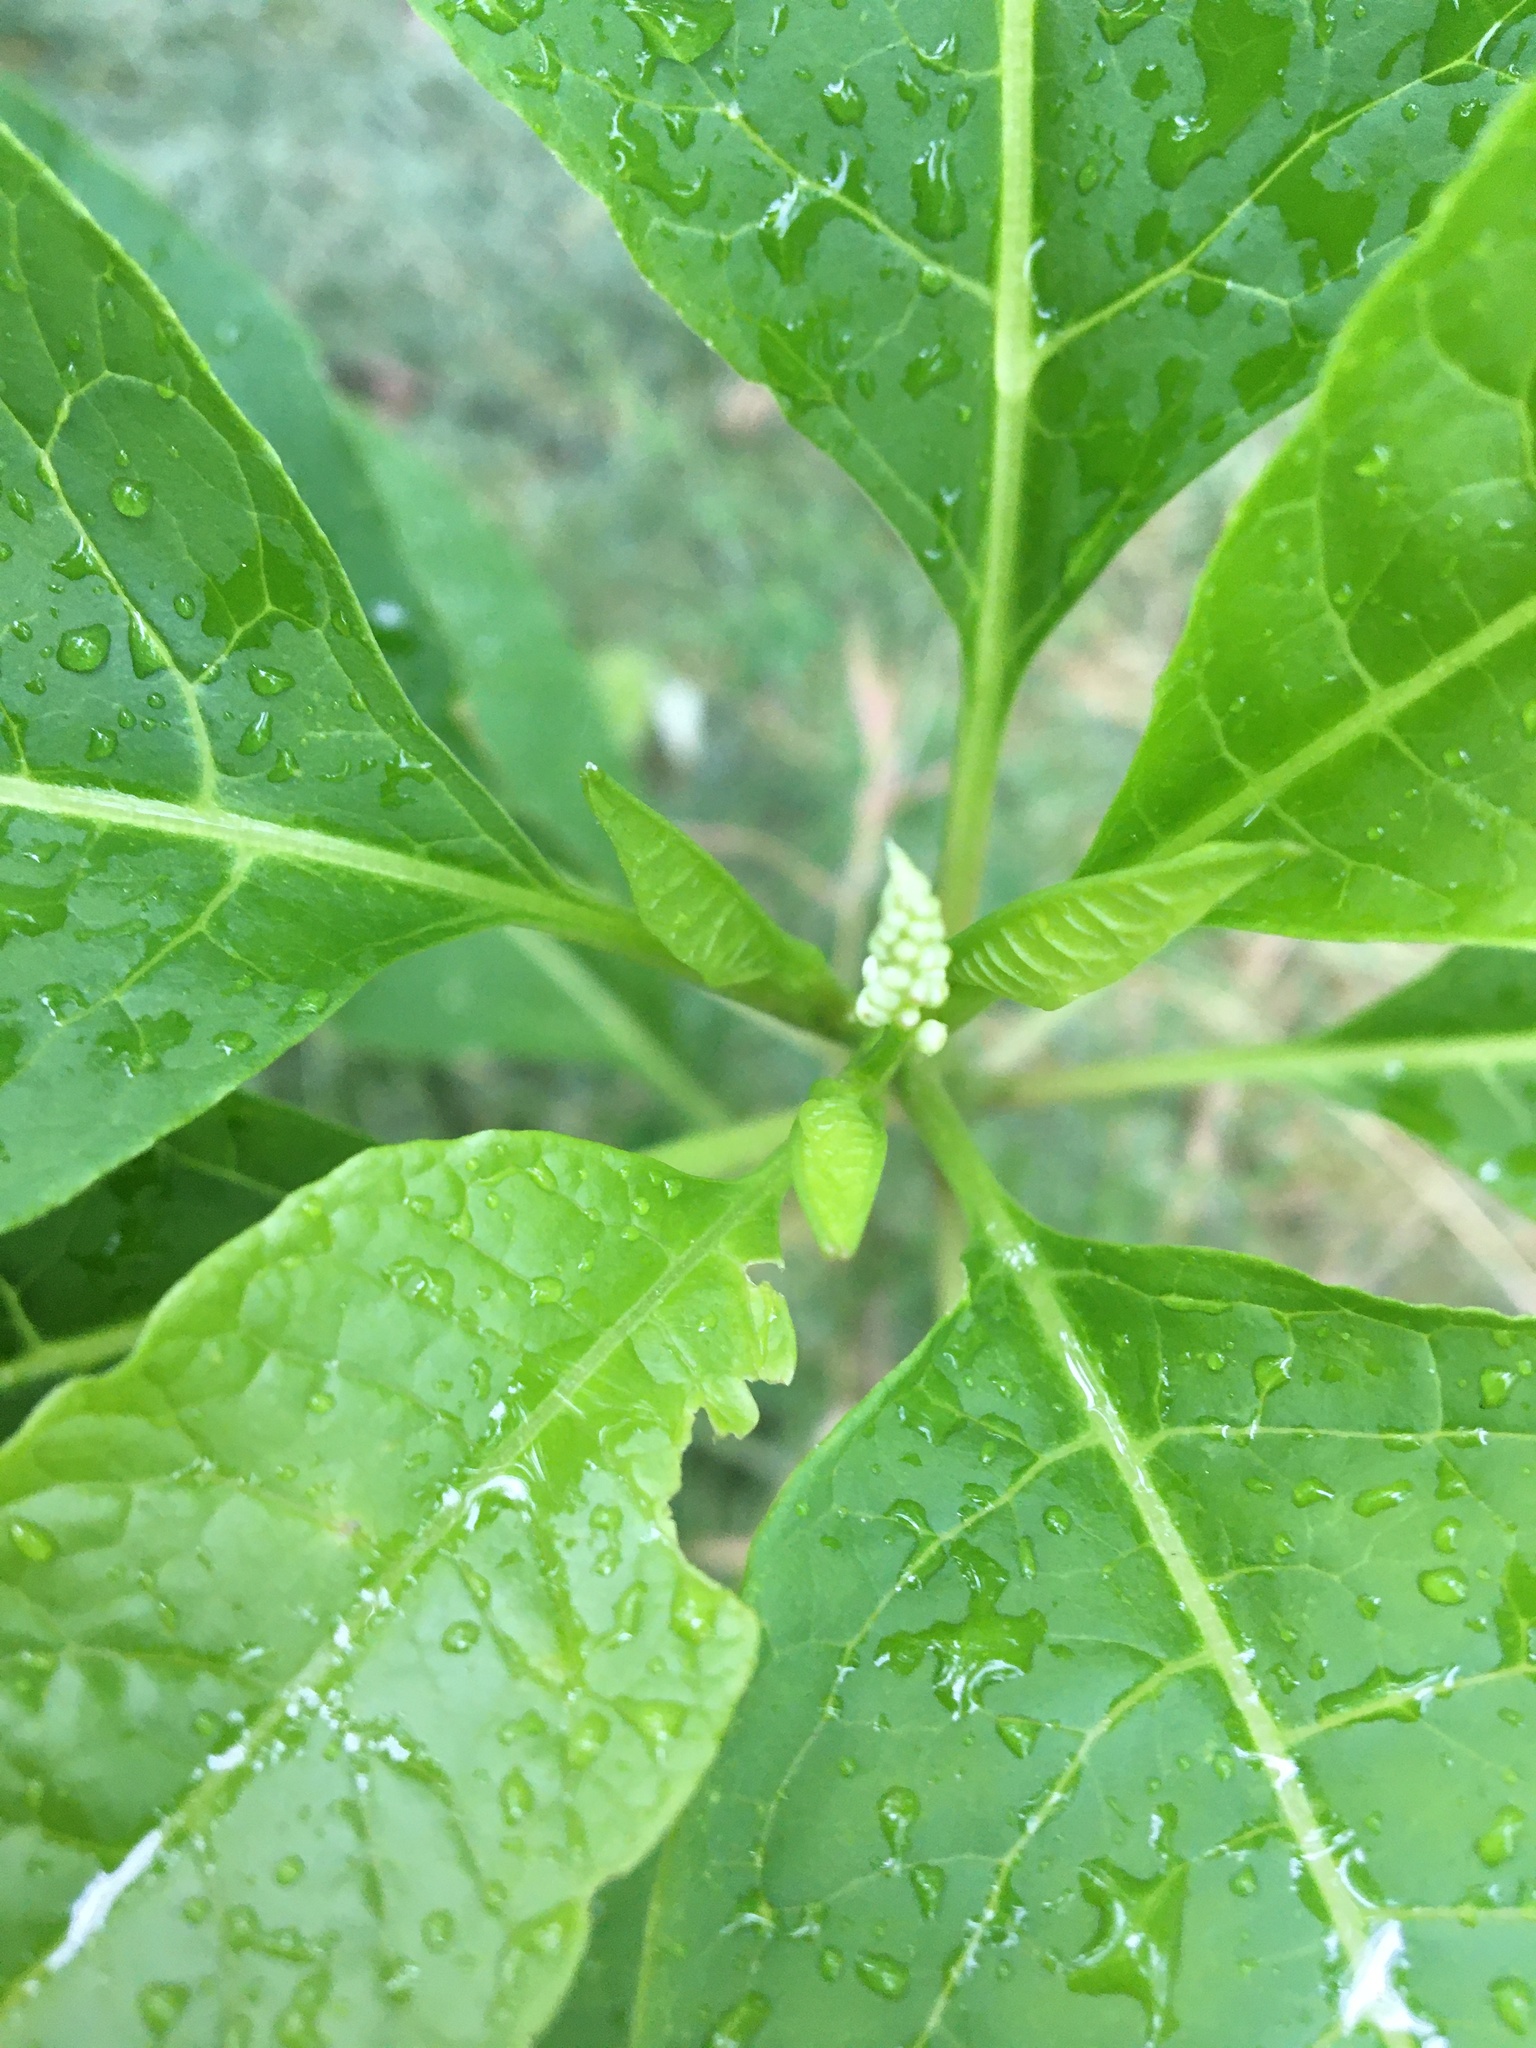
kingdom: Plantae
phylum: Tracheophyta
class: Magnoliopsida
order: Caryophyllales
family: Phytolaccaceae
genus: Phytolacca
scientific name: Phytolacca americana
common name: American pokeweed
